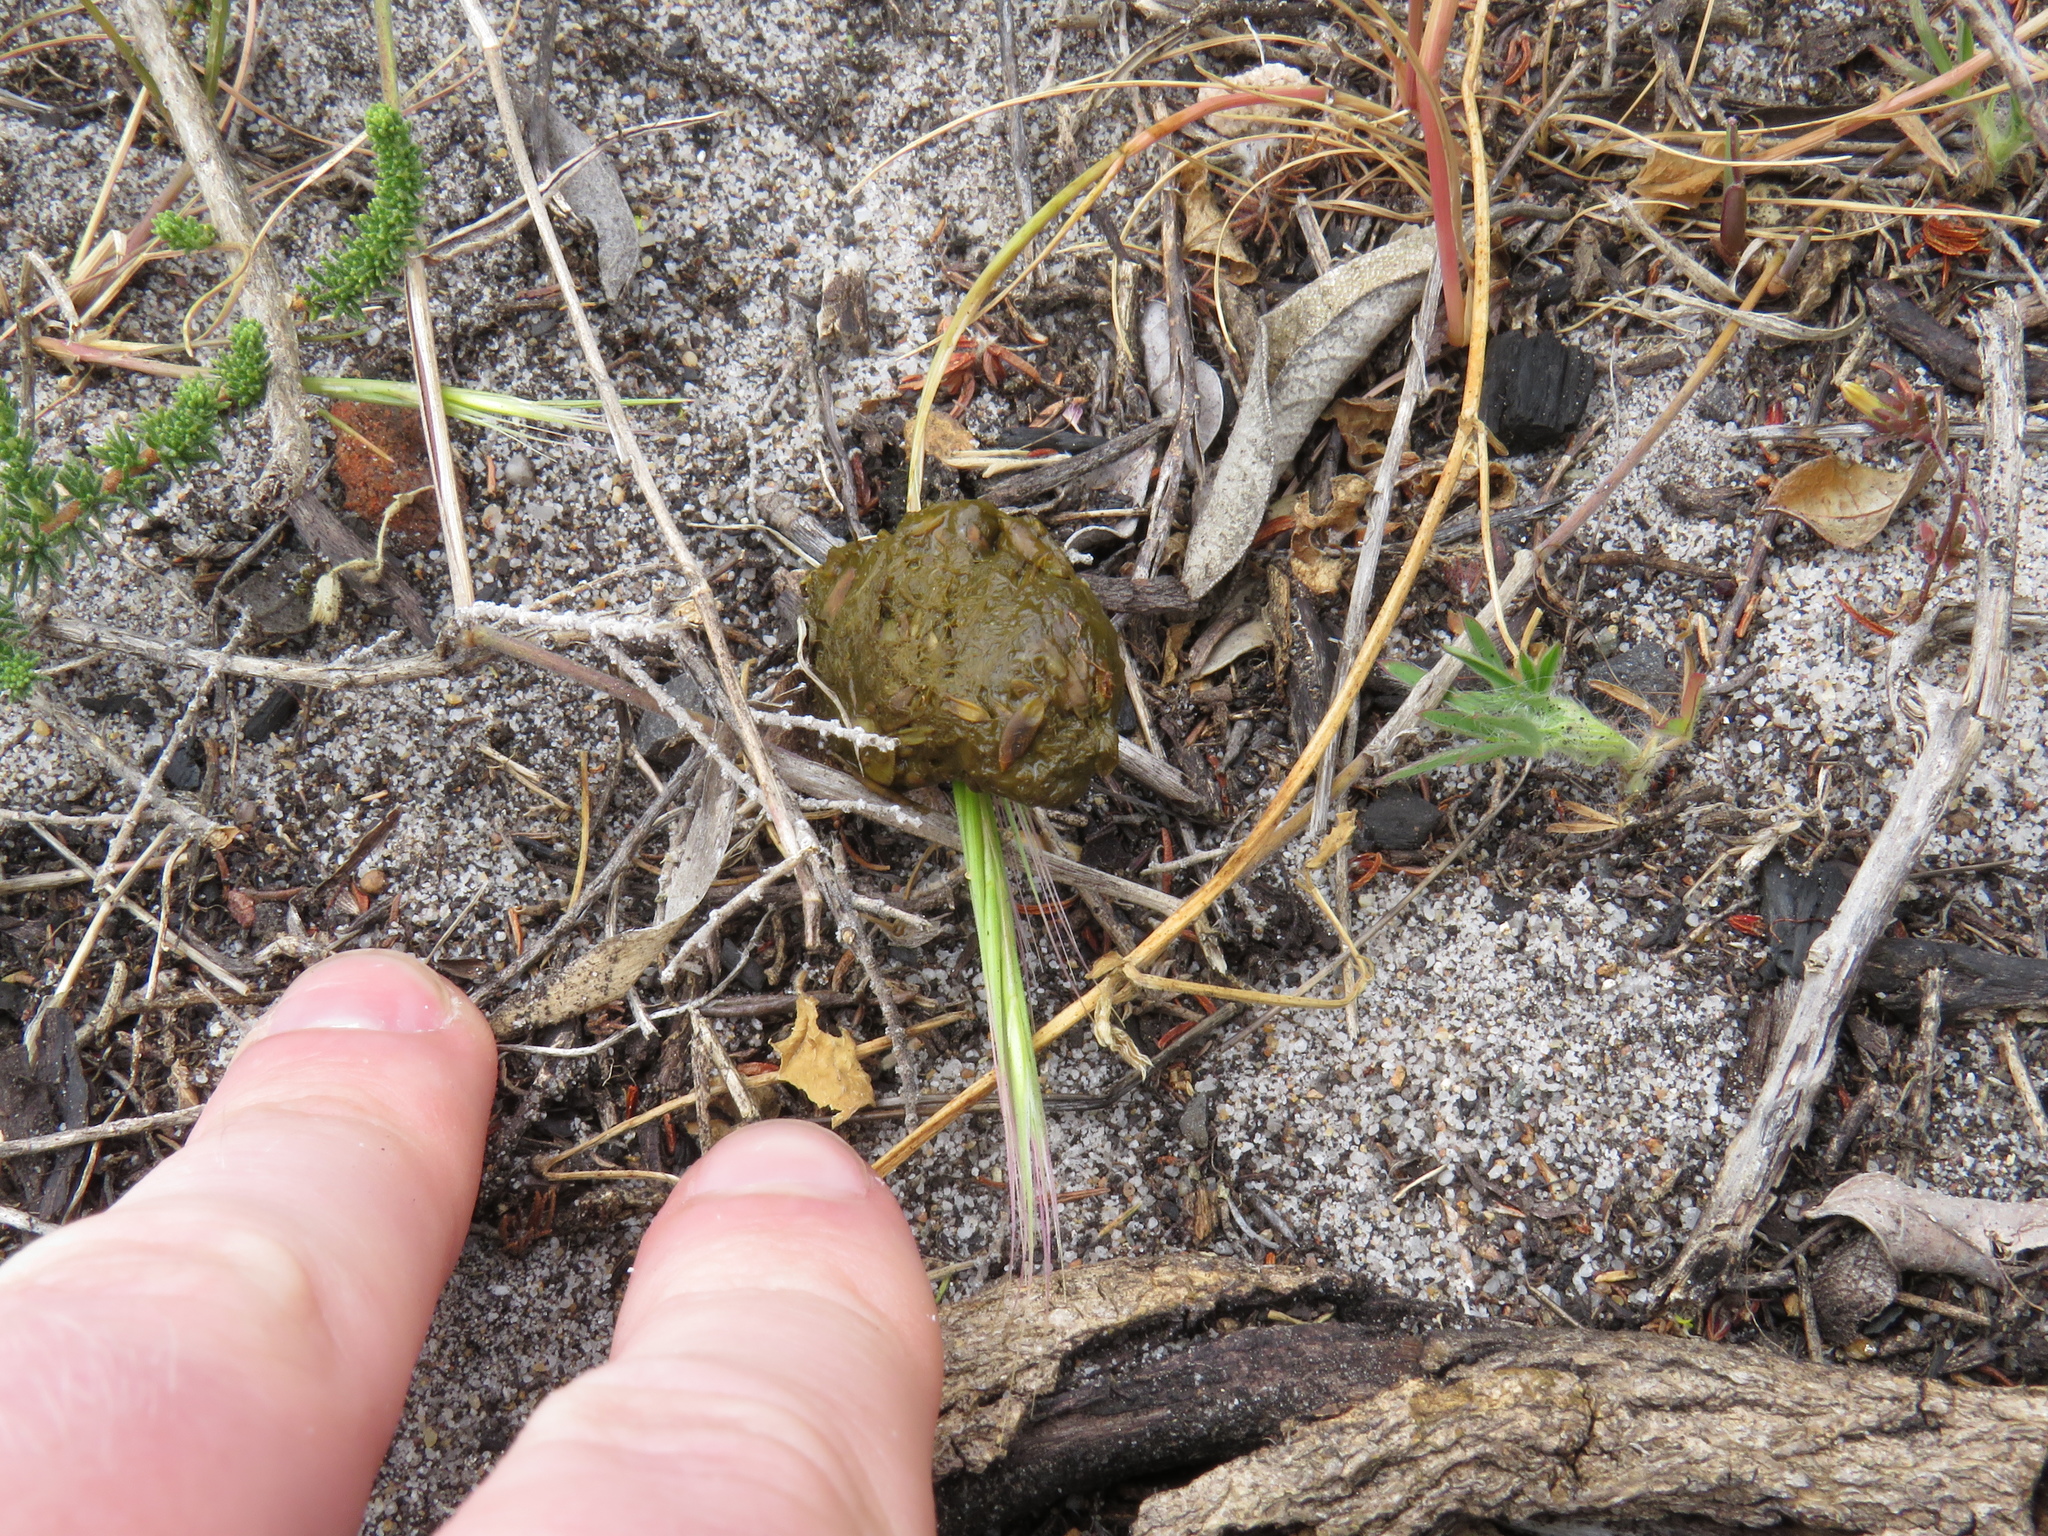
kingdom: Animalia
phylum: Chordata
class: Testudines
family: Testudinidae
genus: Chersina
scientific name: Chersina angulata
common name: South african bowsprit tortoise
